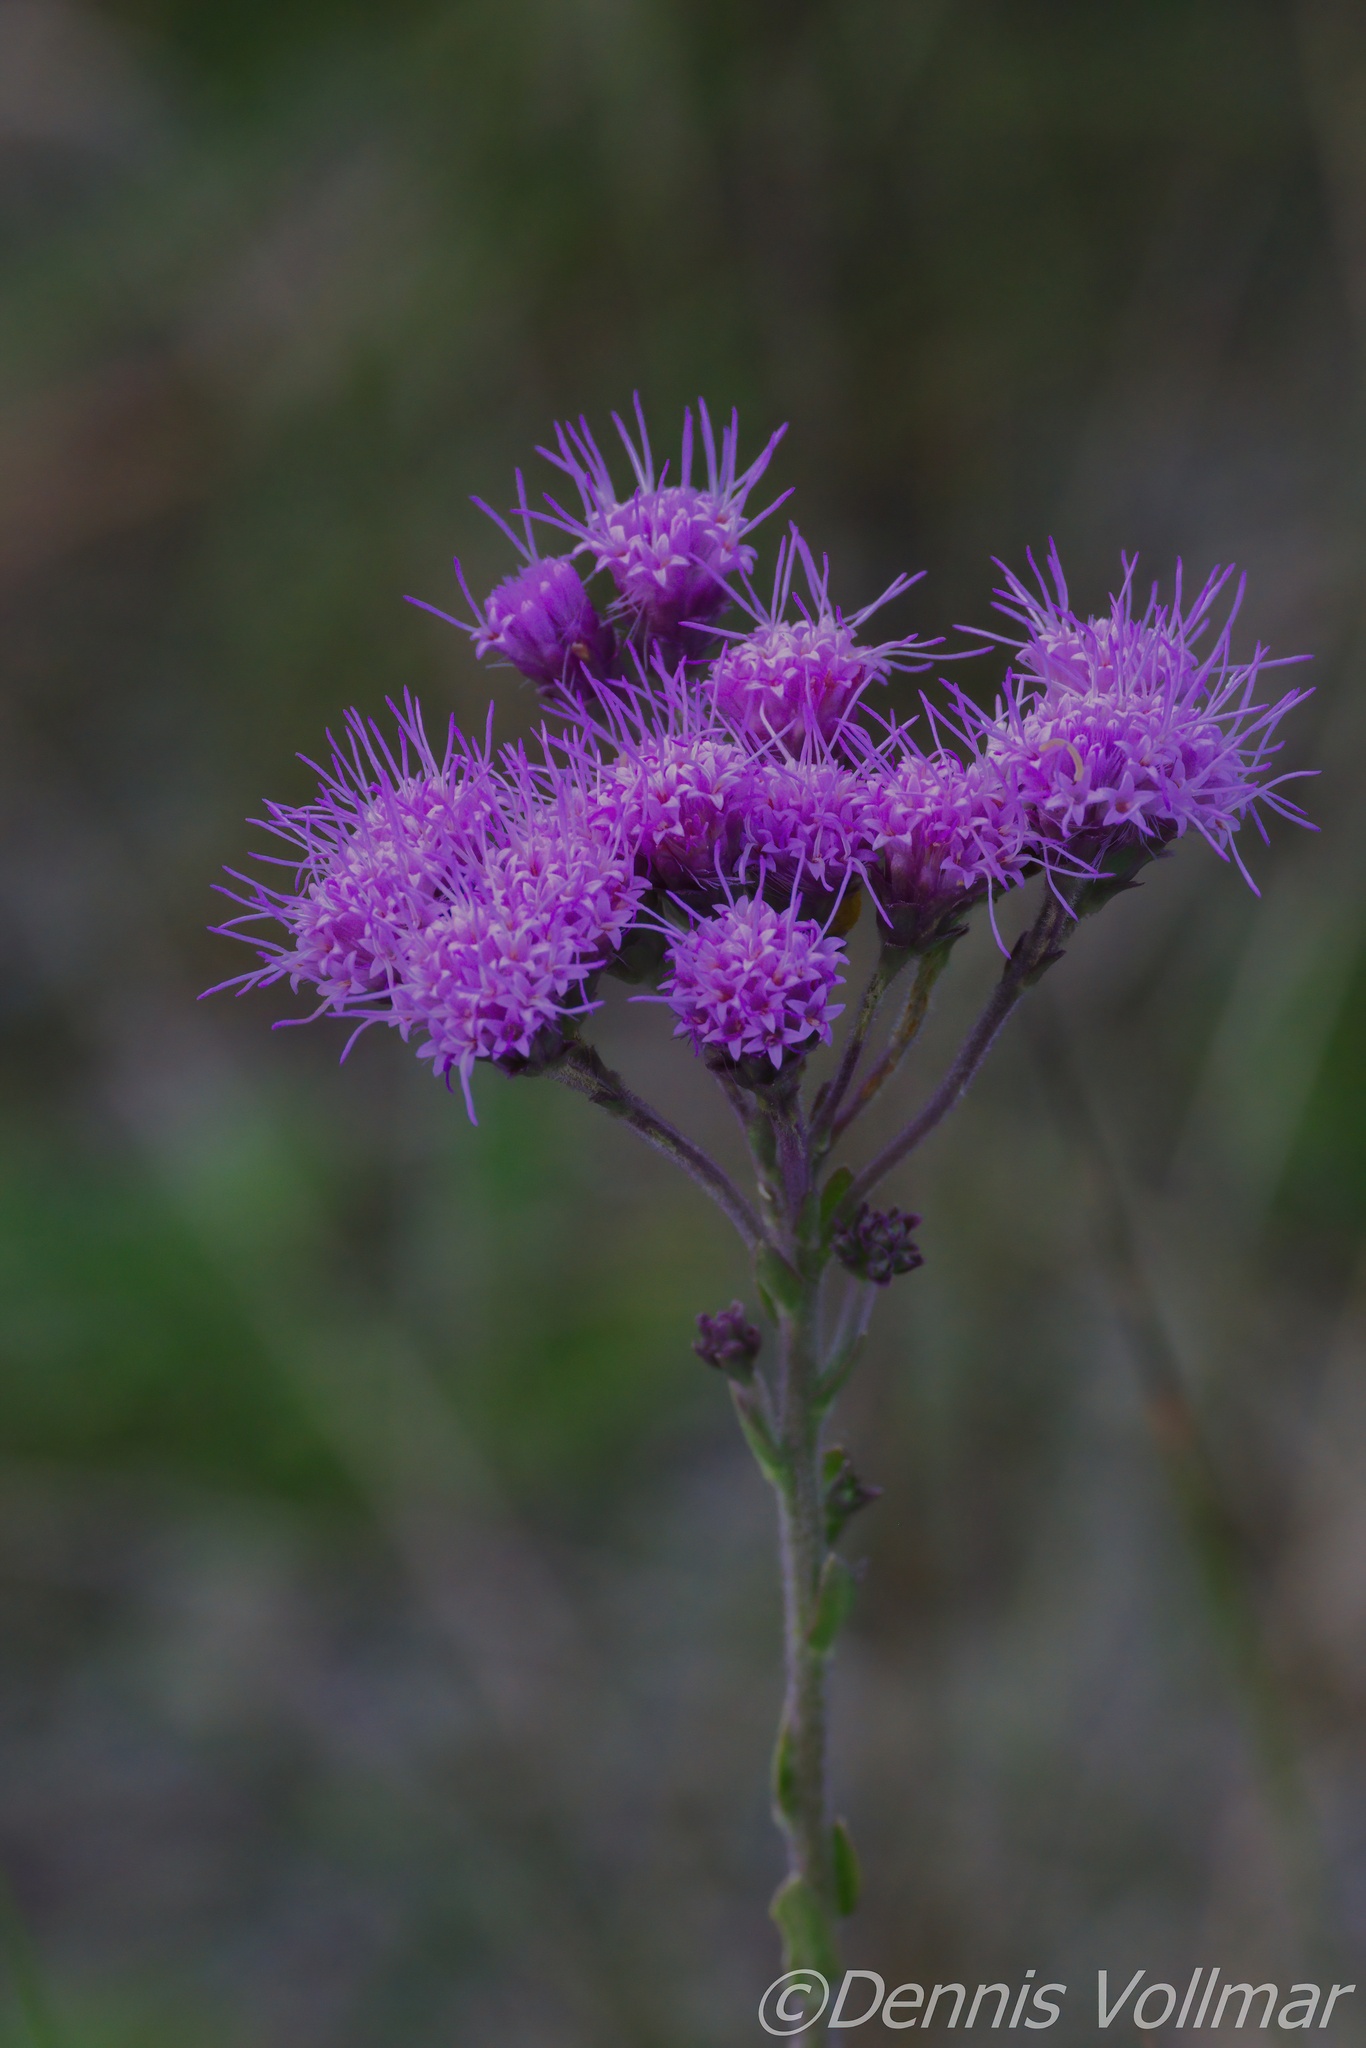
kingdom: Plantae
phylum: Tracheophyta
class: Magnoliopsida
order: Asterales
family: Asteraceae
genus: Carphephorus
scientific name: Carphephorus corymbosus
